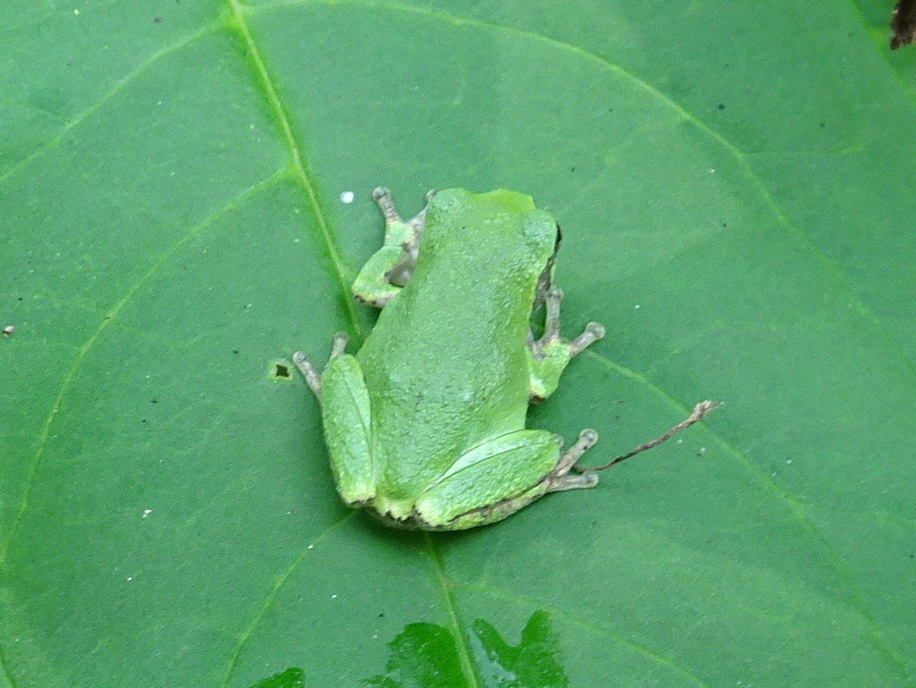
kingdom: Animalia
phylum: Chordata
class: Amphibia
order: Anura
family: Hylidae
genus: Hyla
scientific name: Hyla
